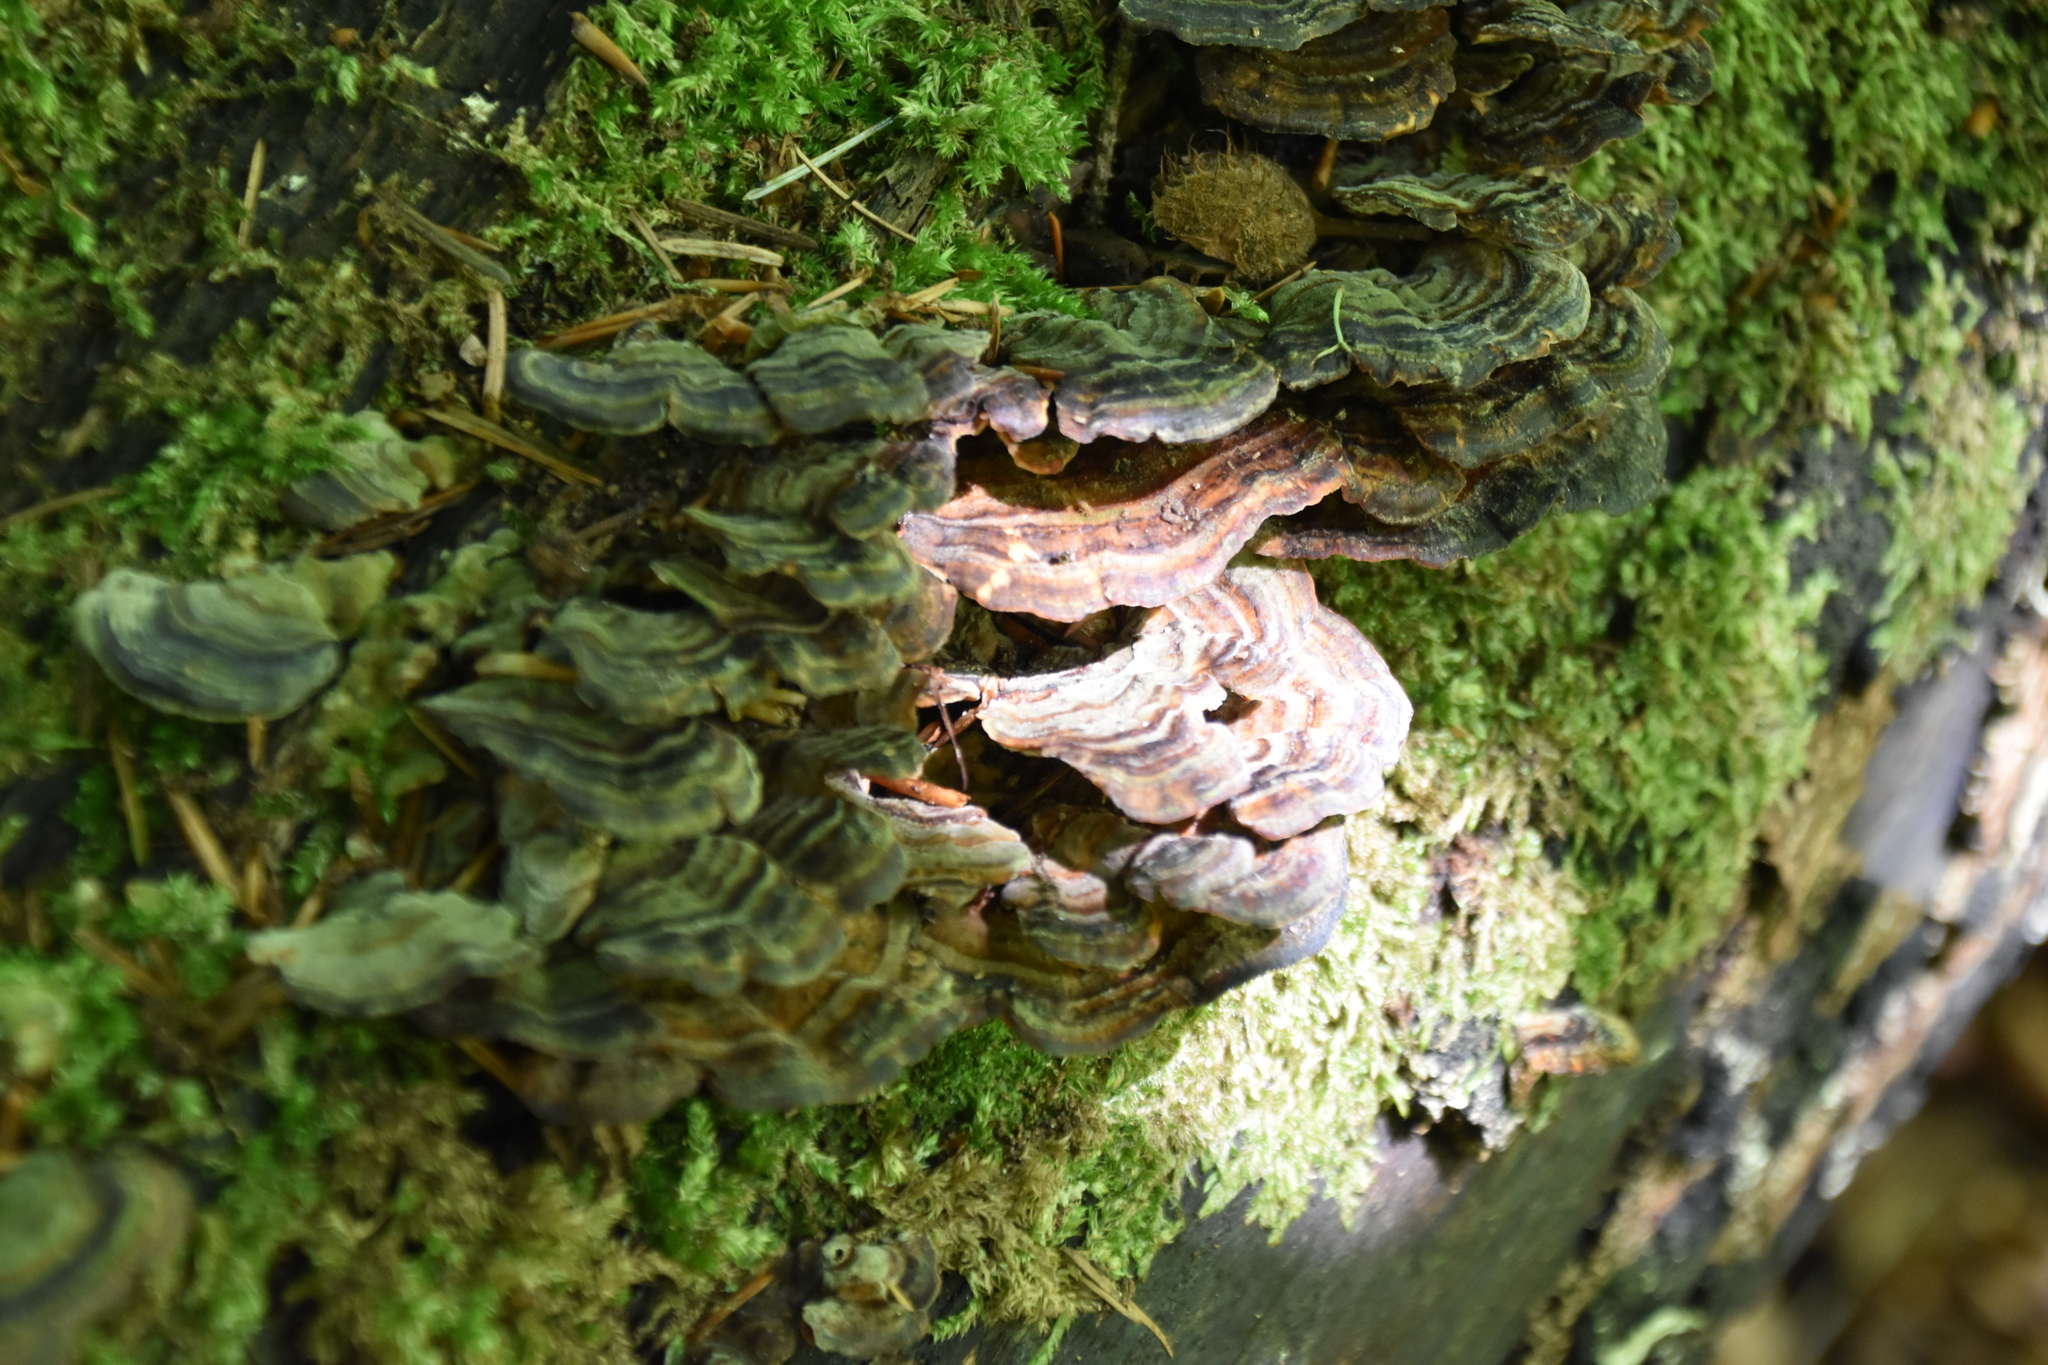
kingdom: Fungi
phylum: Basidiomycota
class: Agaricomycetes
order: Polyporales
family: Polyporaceae
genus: Trametes
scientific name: Trametes versicolor
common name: Turkeytail
